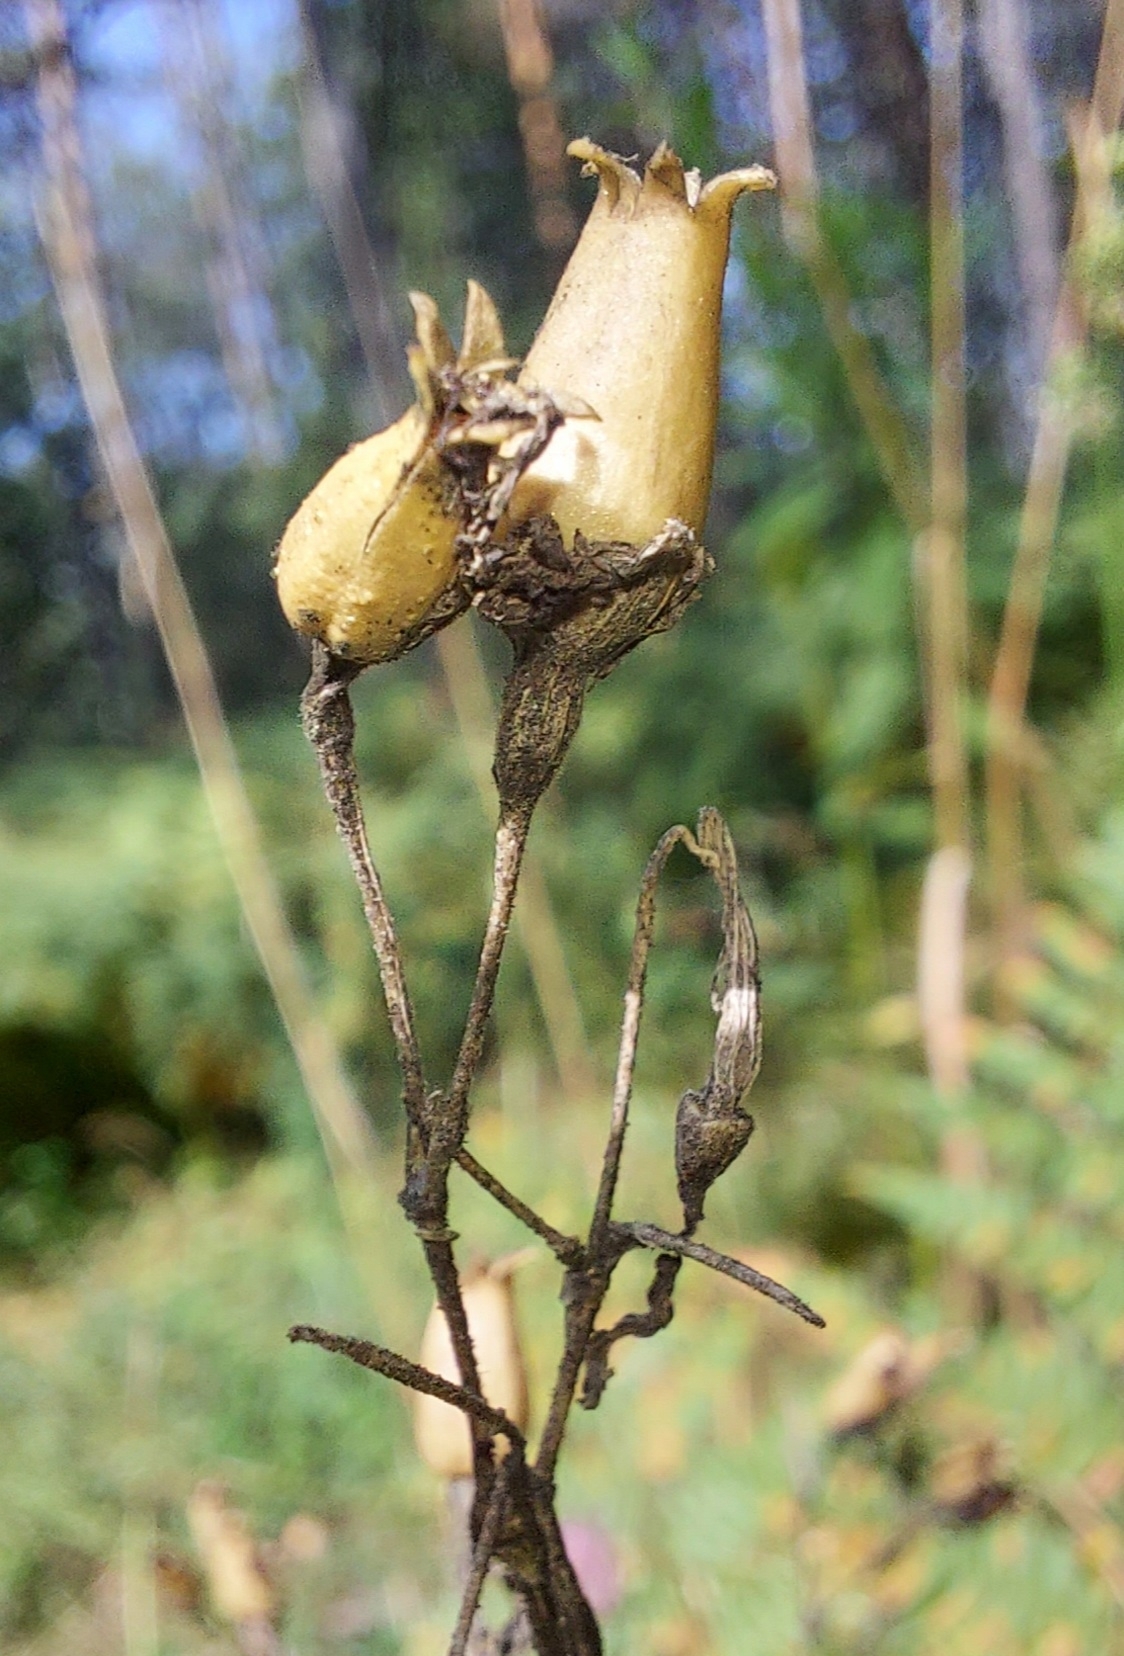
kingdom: Plantae
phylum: Tracheophyta
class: Magnoliopsida
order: Caryophyllales
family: Caryophyllaceae
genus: Silene
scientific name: Silene nutans
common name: Nottingham catchfly
